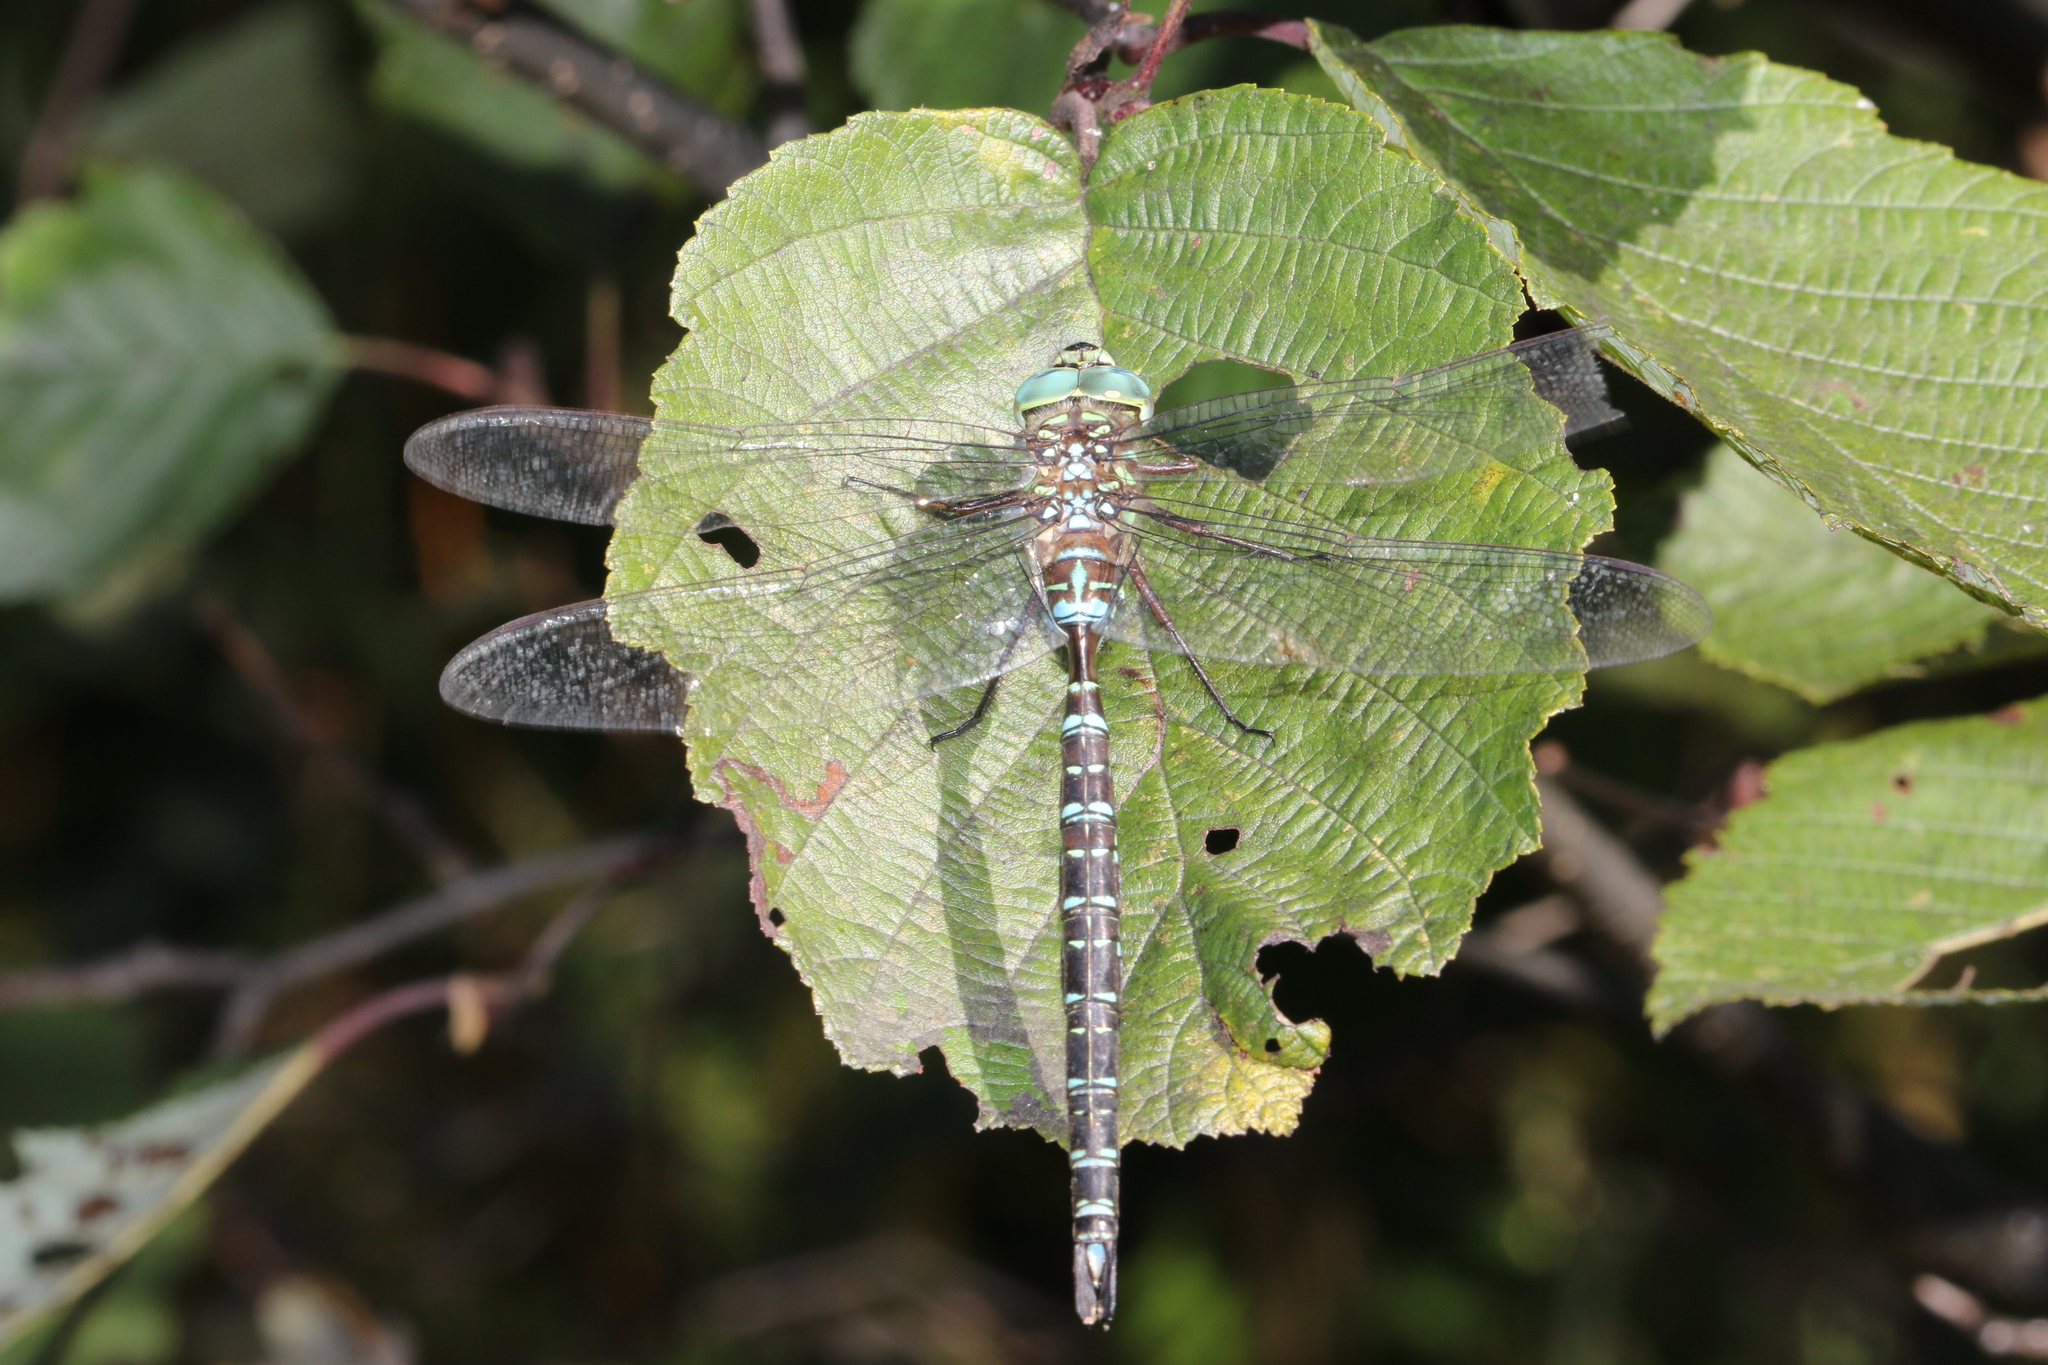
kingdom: Animalia
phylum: Arthropoda
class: Insecta
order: Odonata
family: Aeshnidae
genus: Aeshna
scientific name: Aeshna umbrosa
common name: Shadow darner
